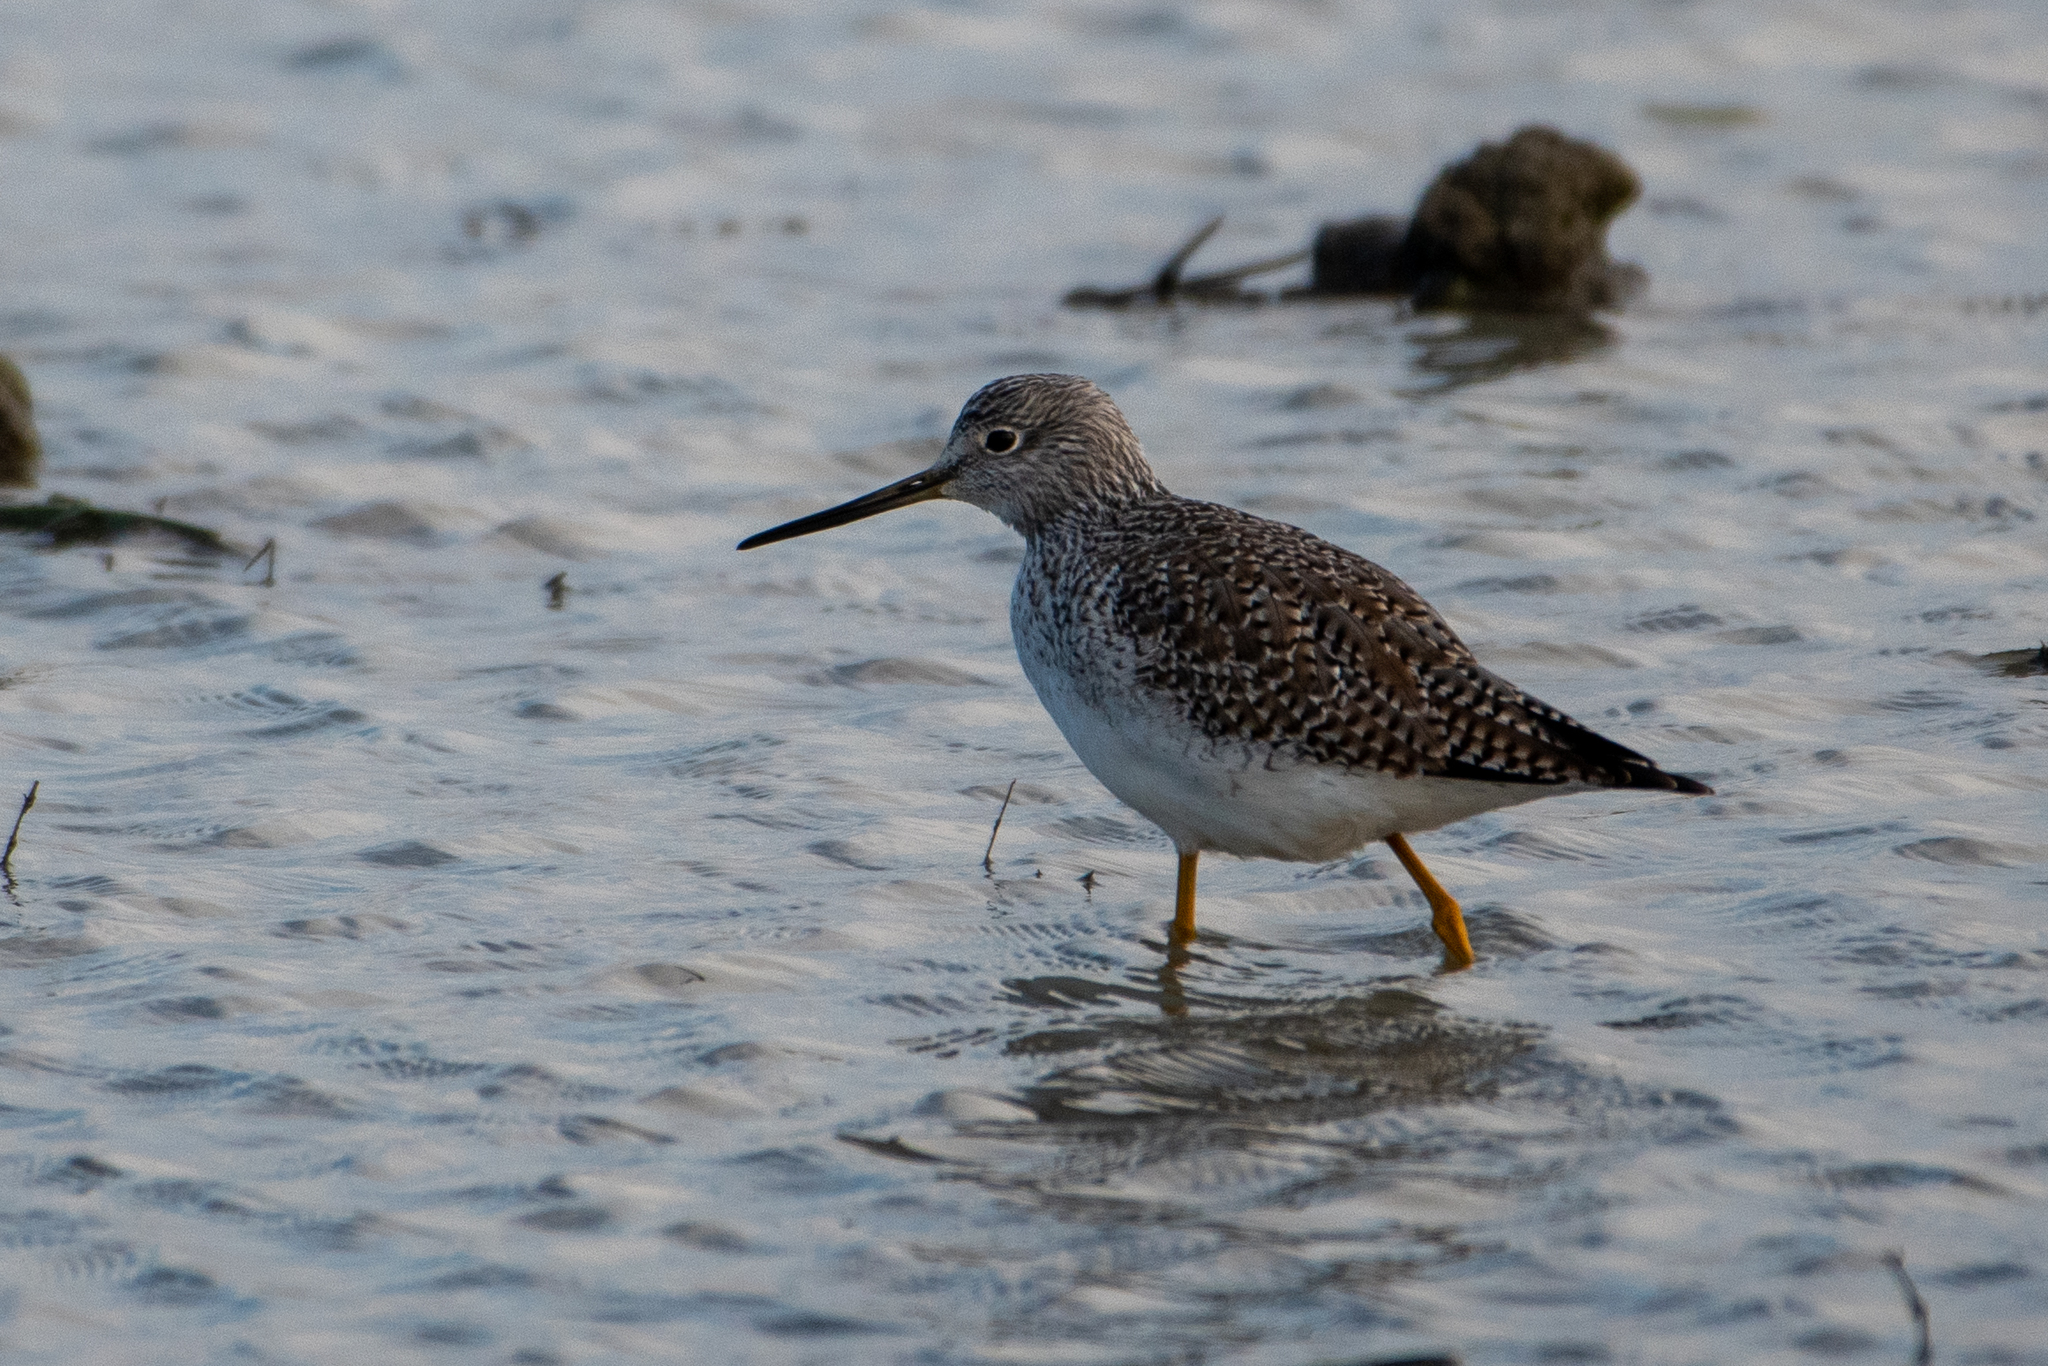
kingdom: Animalia
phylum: Chordata
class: Aves
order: Charadriiformes
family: Scolopacidae
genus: Tringa
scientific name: Tringa melanoleuca
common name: Greater yellowlegs
